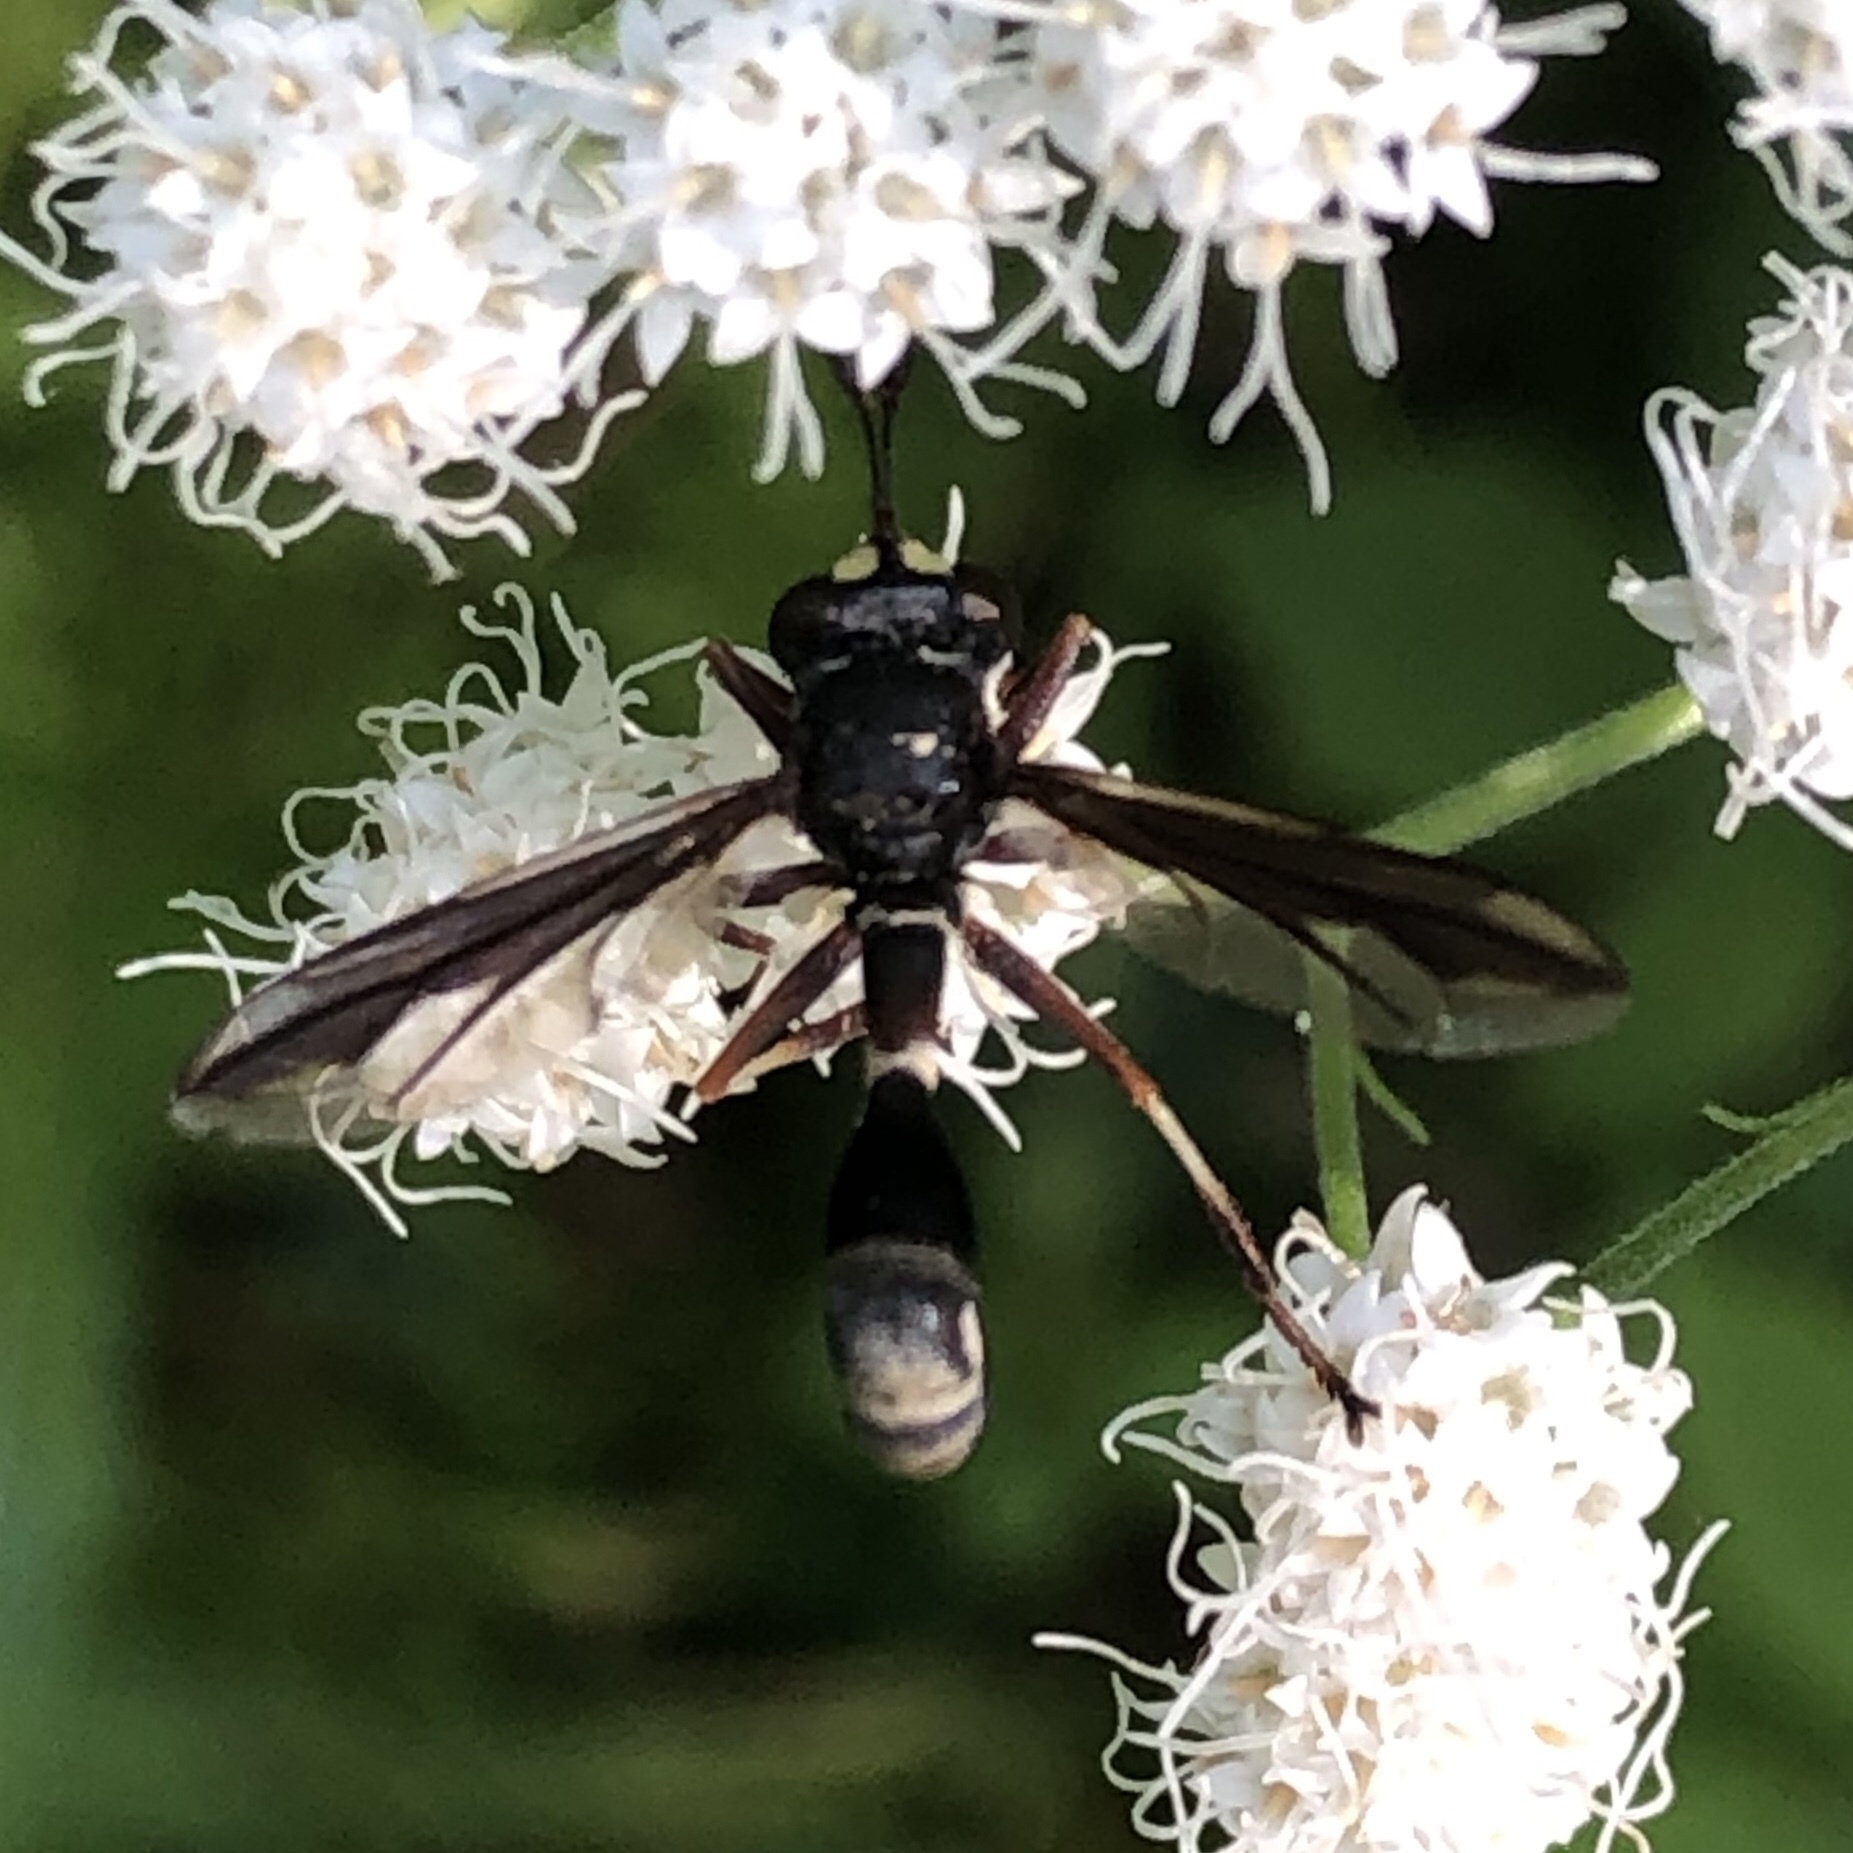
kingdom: Animalia
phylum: Arthropoda
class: Insecta
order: Diptera
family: Conopidae
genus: Physocephala
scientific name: Physocephala furcillata
